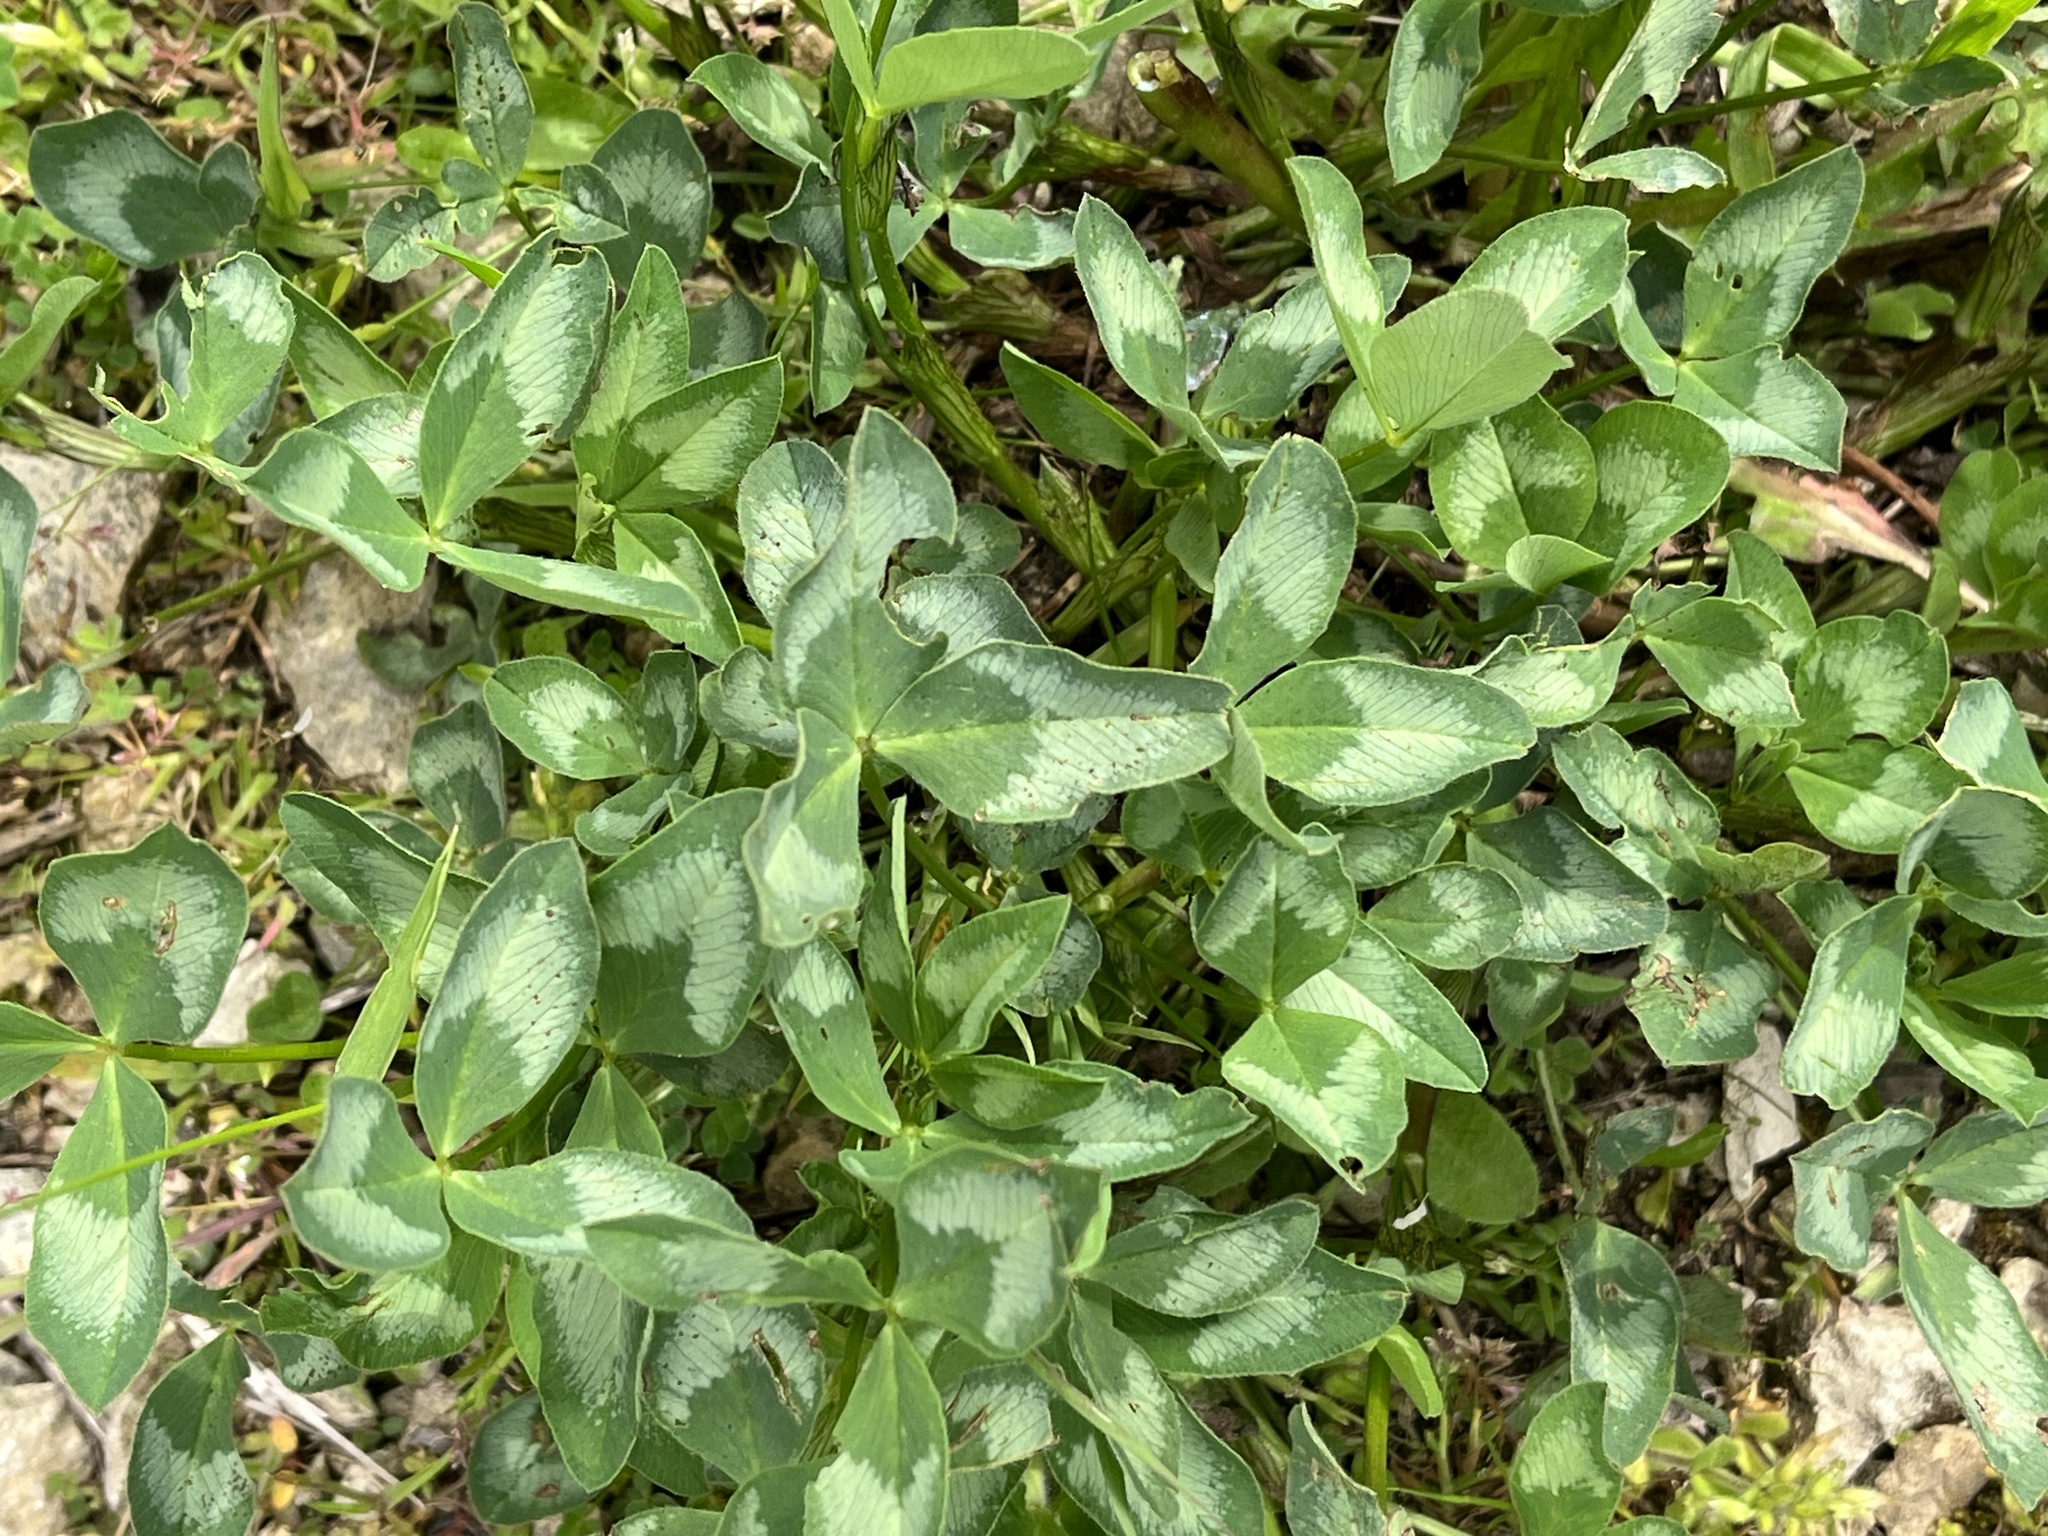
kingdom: Plantae
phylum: Tracheophyta
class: Magnoliopsida
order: Fabales
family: Fabaceae
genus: Trifolium
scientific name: Trifolium pratense
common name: Red clover
